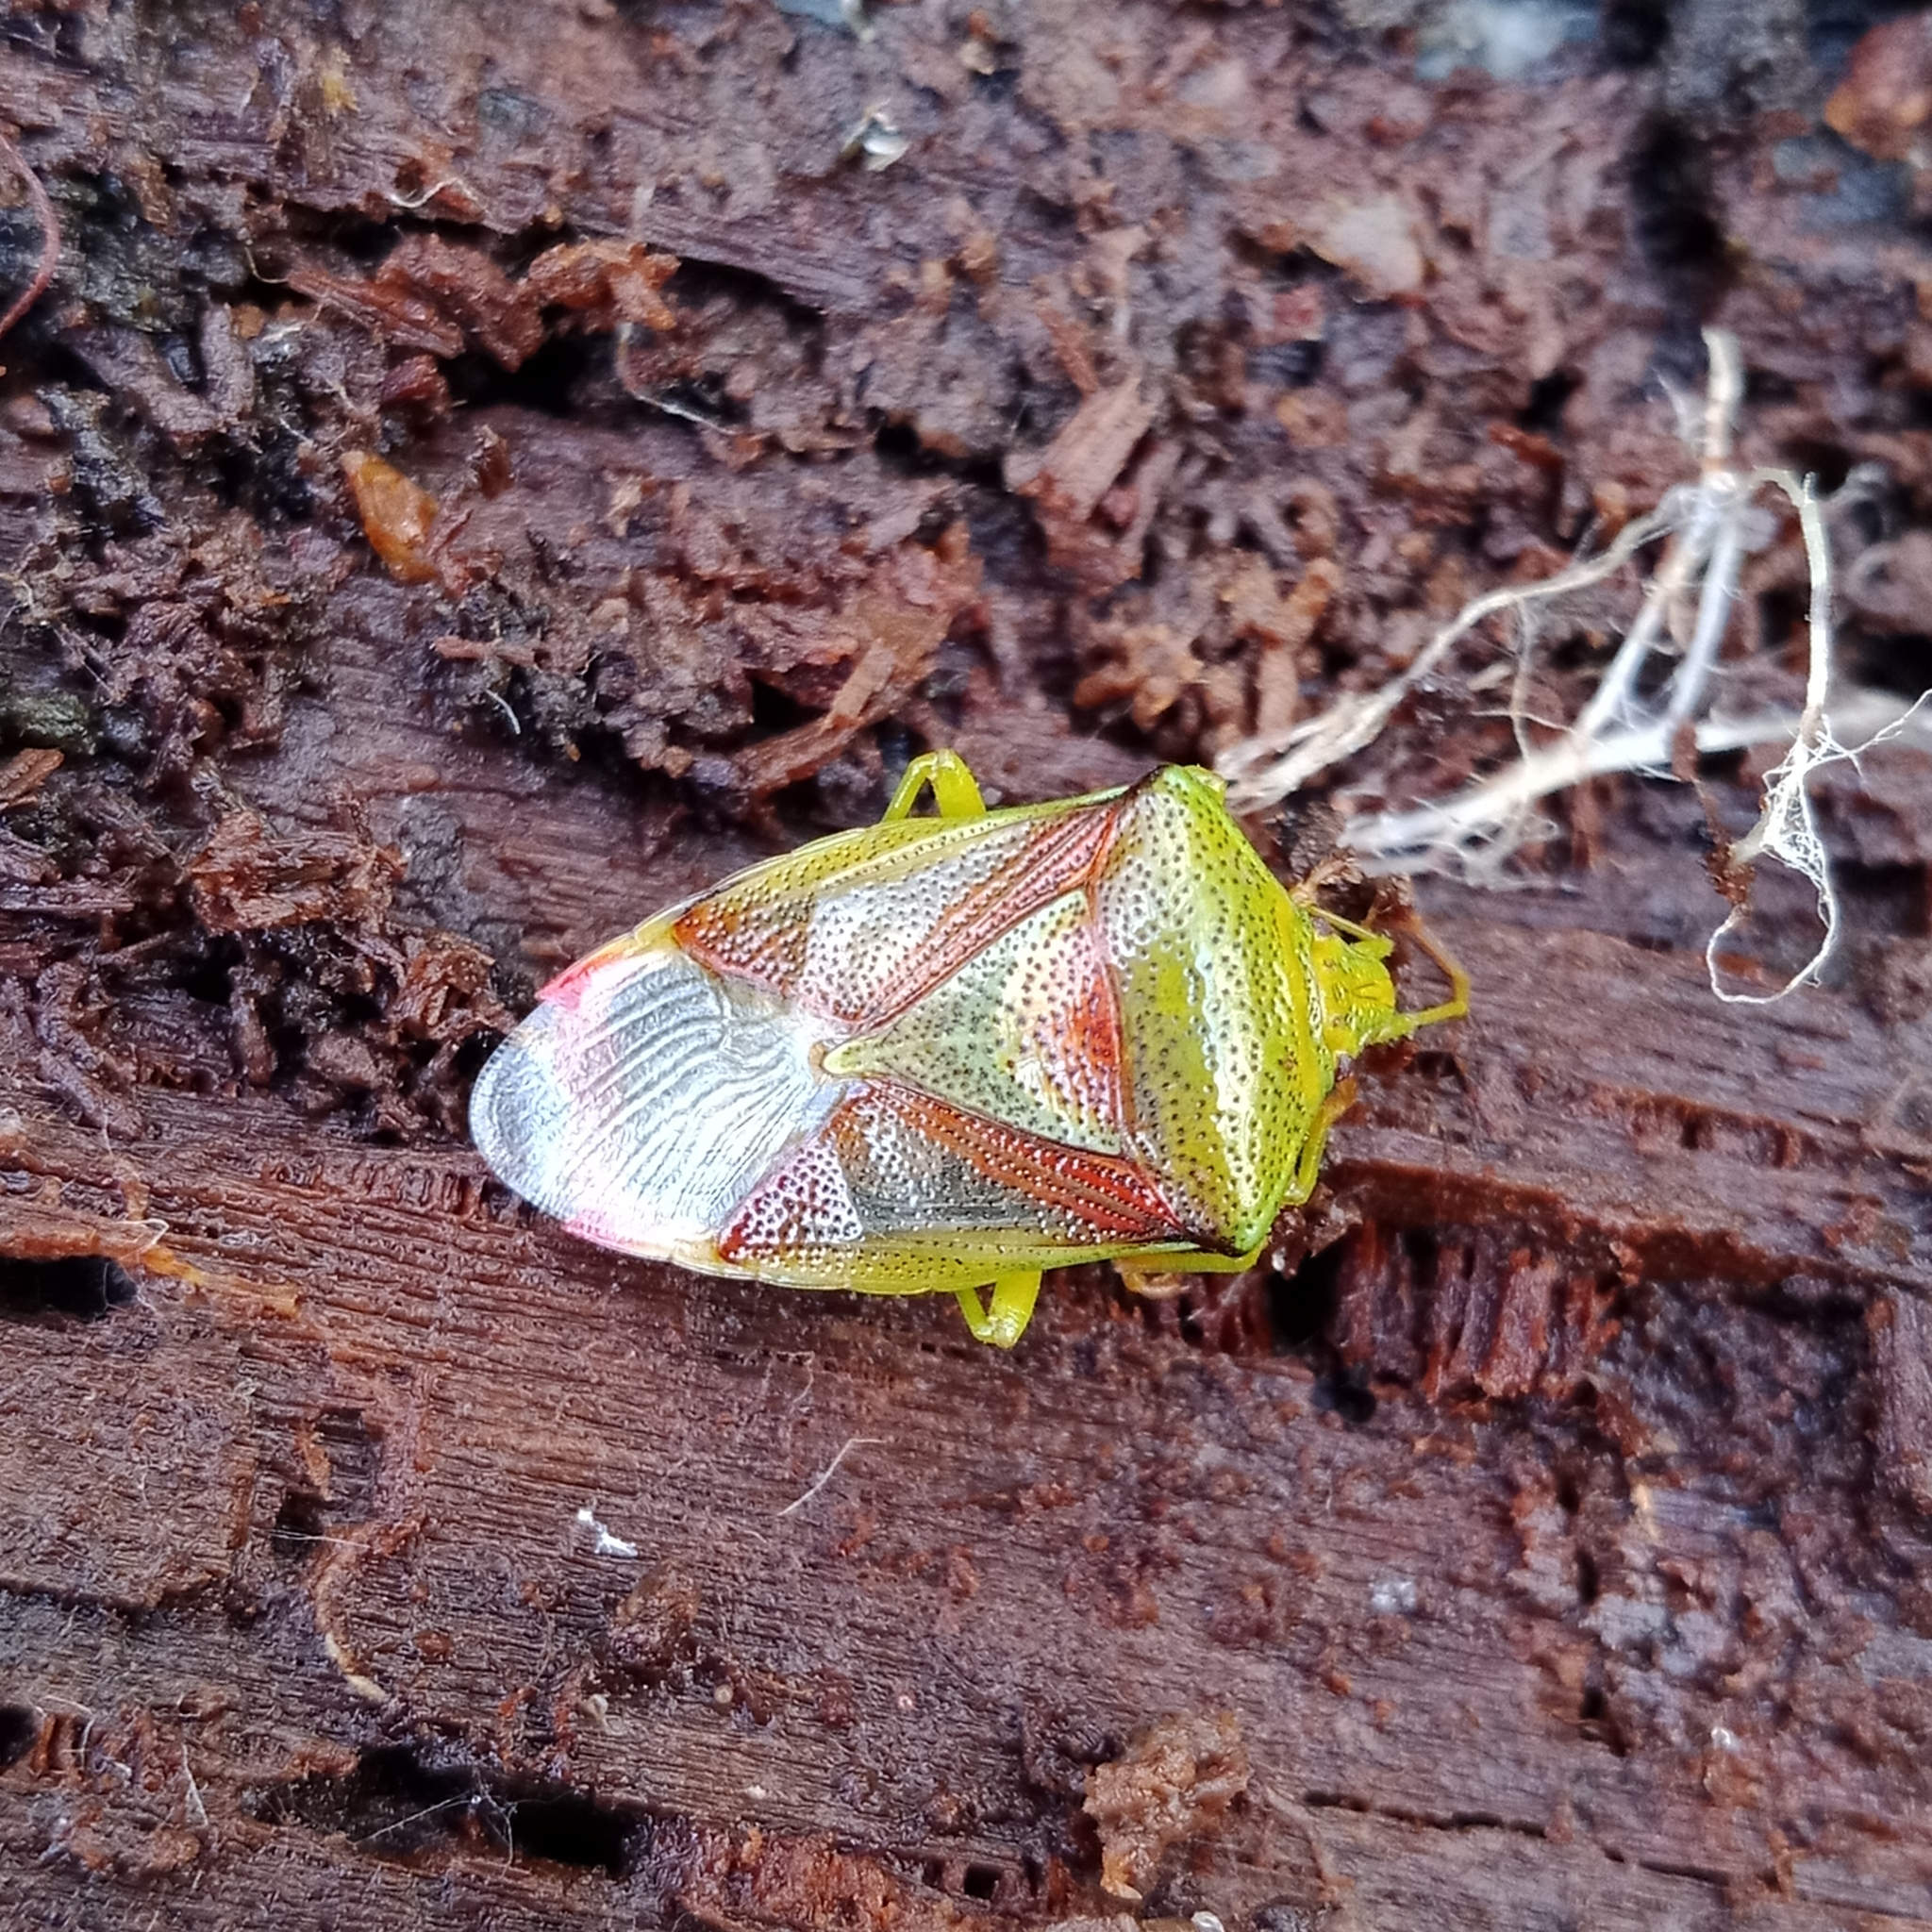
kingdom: Animalia
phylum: Arthropoda
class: Insecta
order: Hemiptera
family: Acanthosomatidae
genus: Elasmostethus
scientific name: Elasmostethus interstinctus
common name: Birch shieldbug
